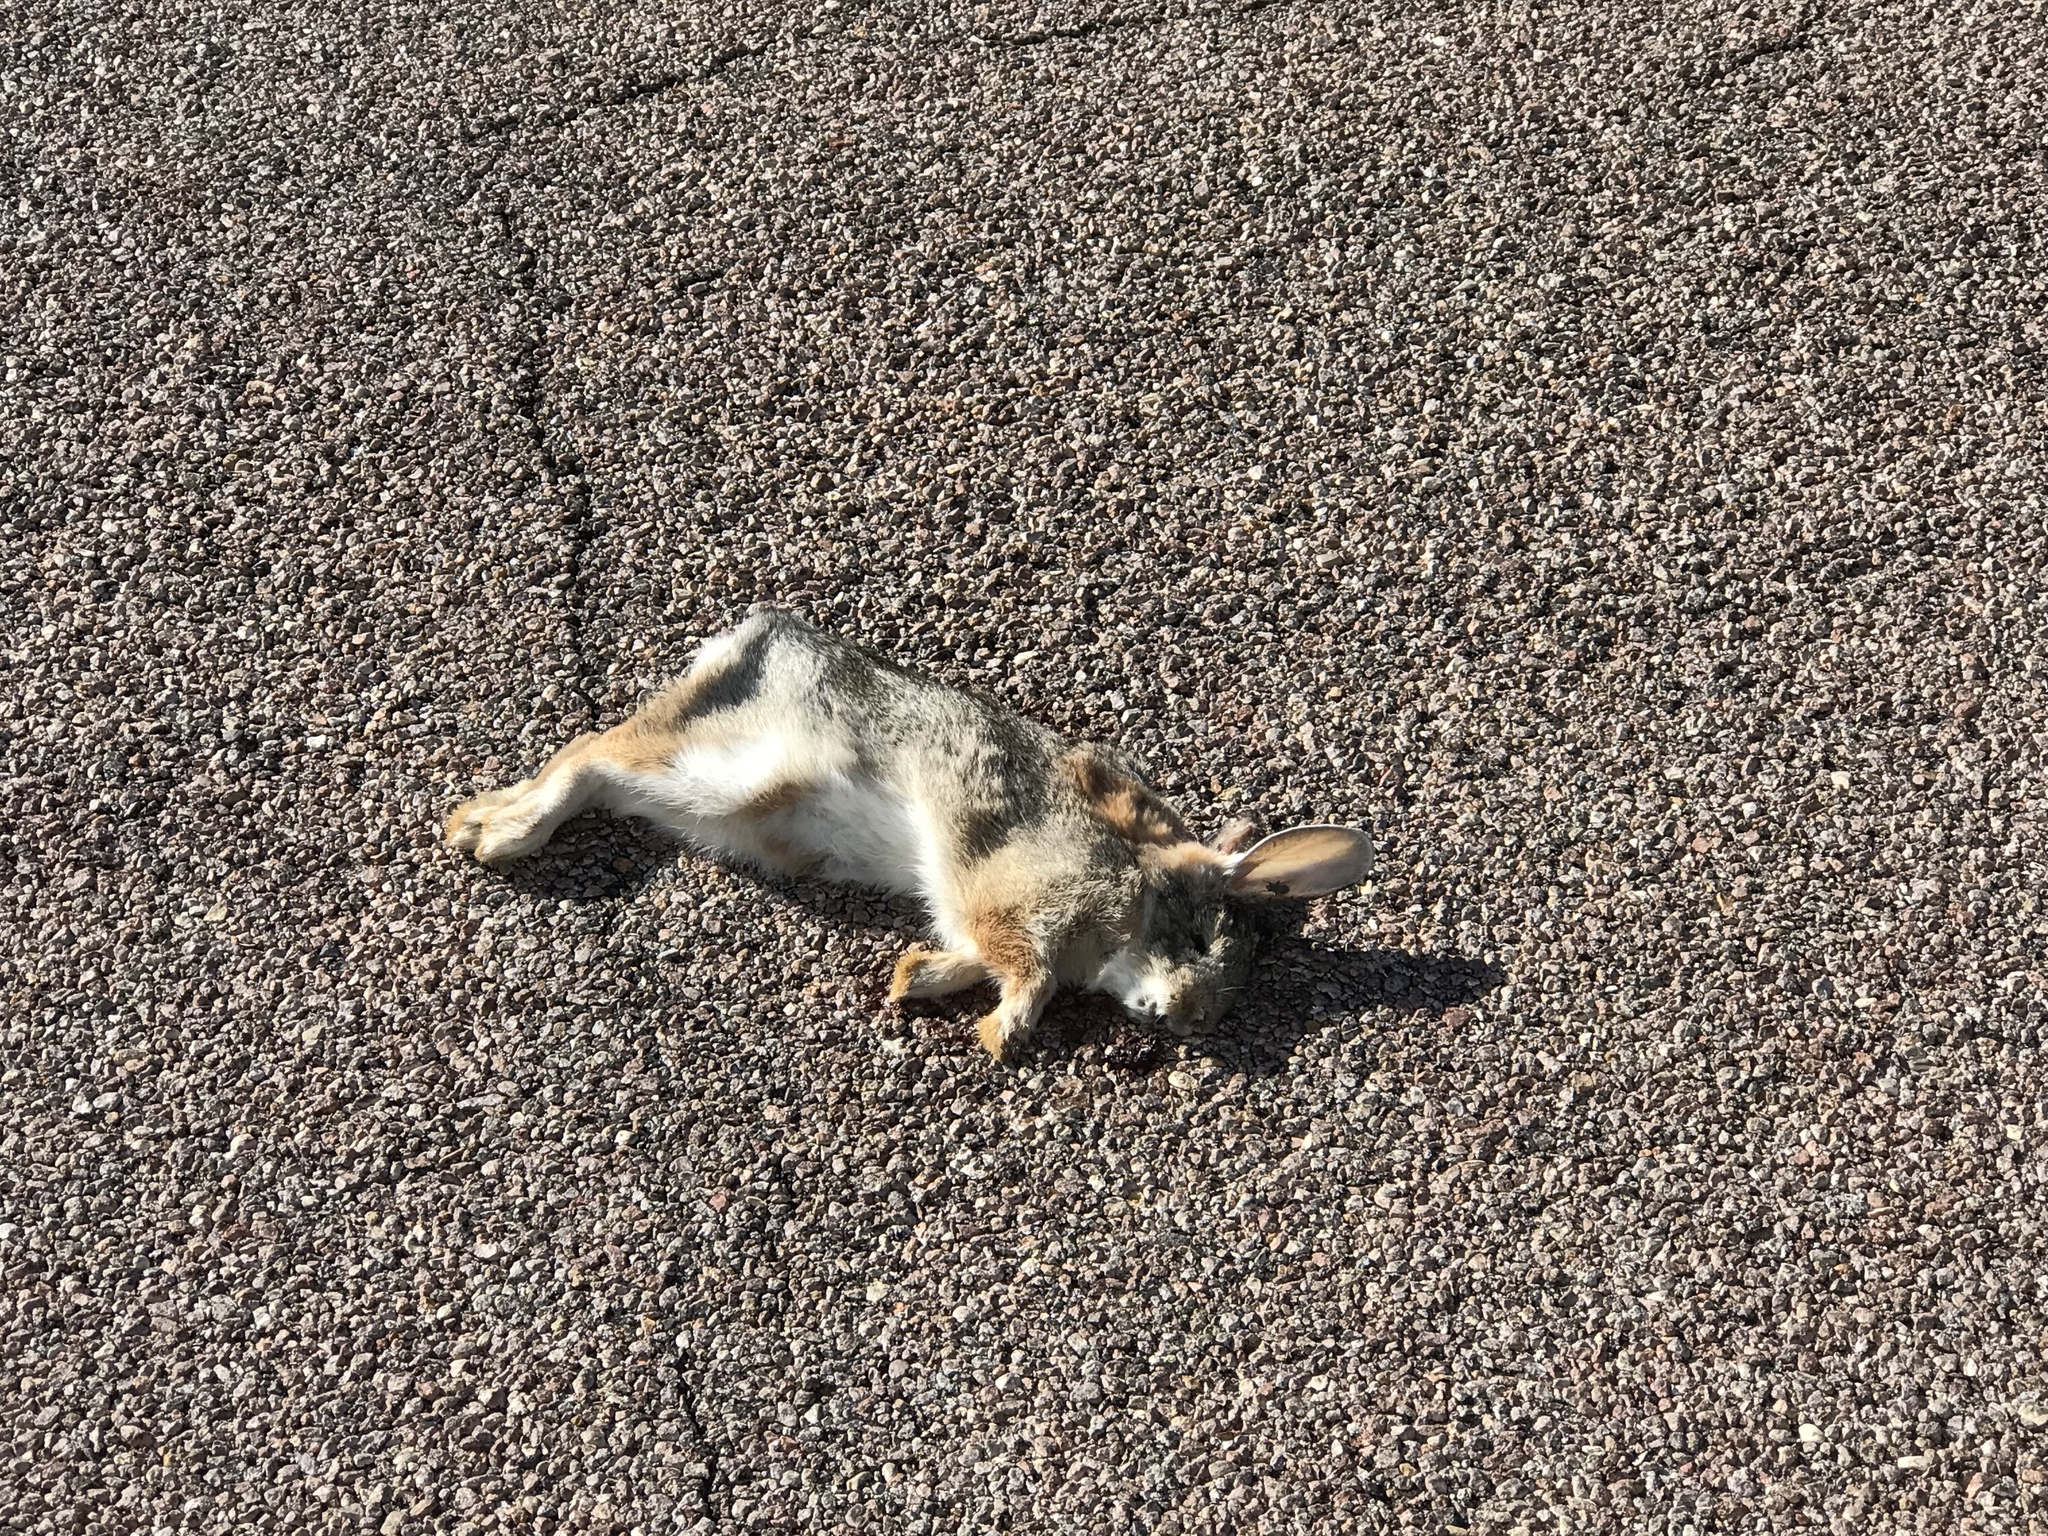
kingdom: Animalia
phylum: Chordata
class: Mammalia
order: Lagomorpha
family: Leporidae
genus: Sylvilagus
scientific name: Sylvilagus audubonii
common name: Desert cottontail
